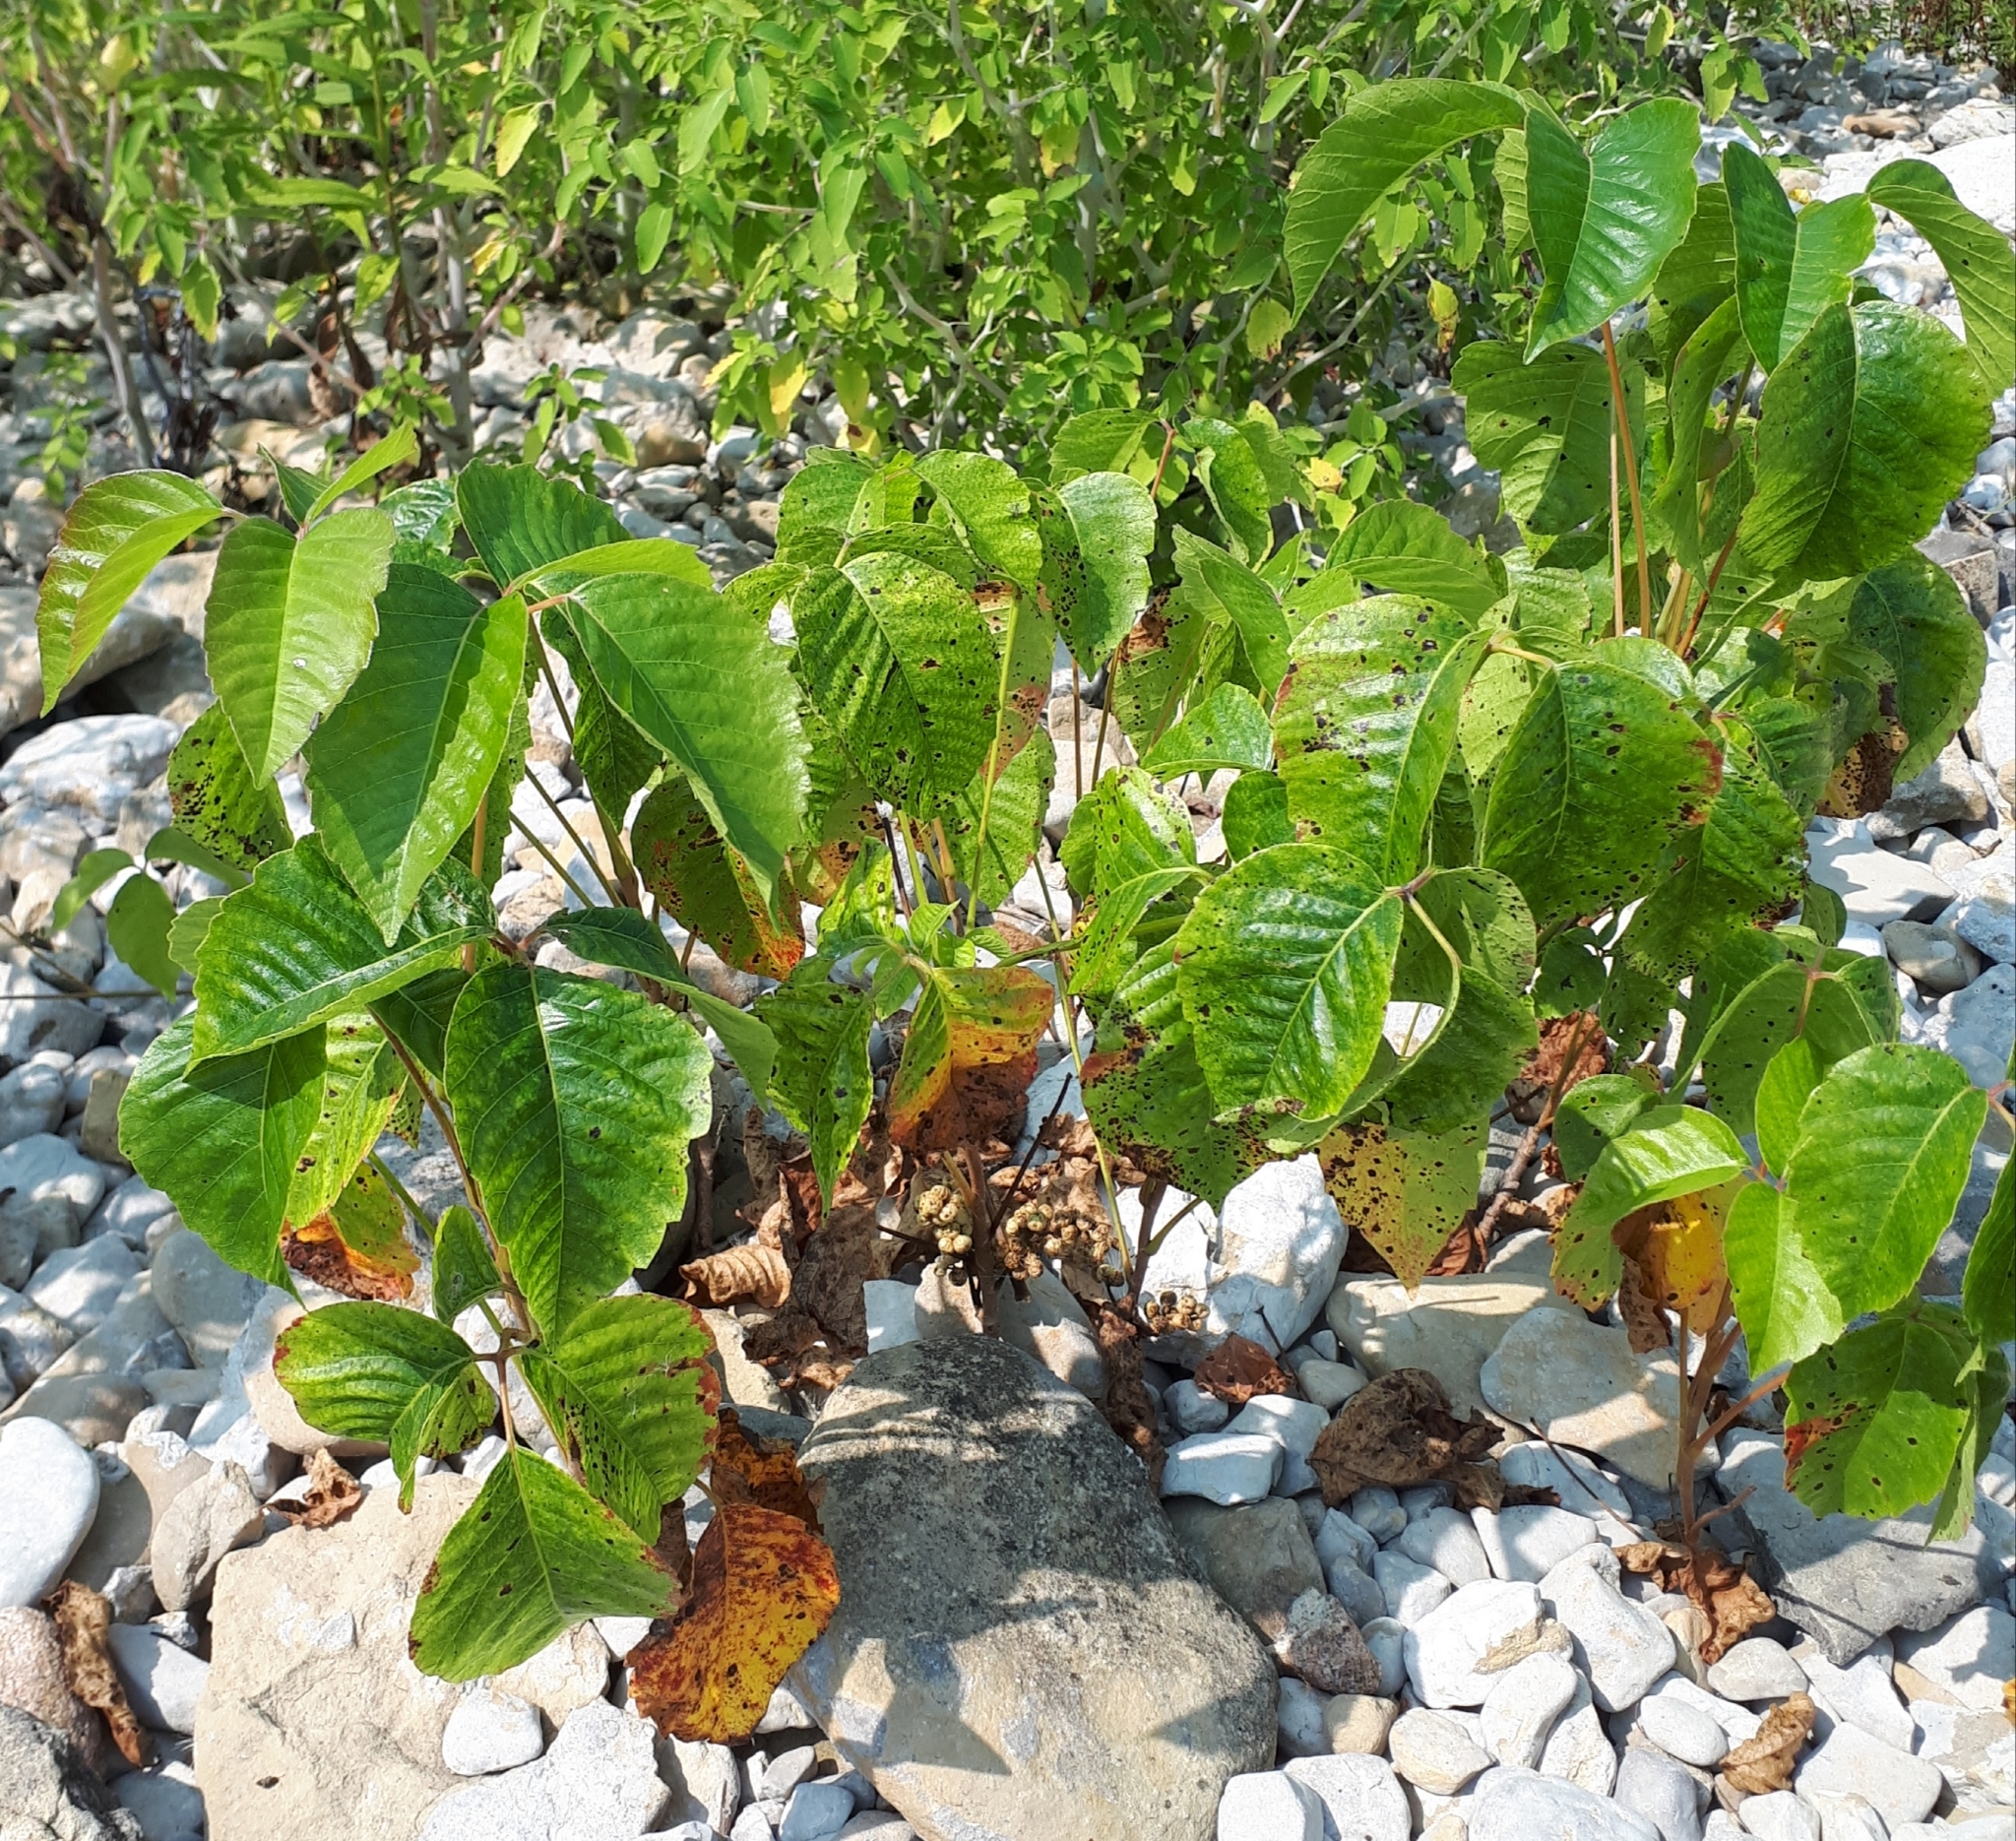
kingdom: Plantae
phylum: Tracheophyta
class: Magnoliopsida
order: Sapindales
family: Anacardiaceae
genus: Toxicodendron
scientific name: Toxicodendron rydbergii
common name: Rydberg's poison-ivy
